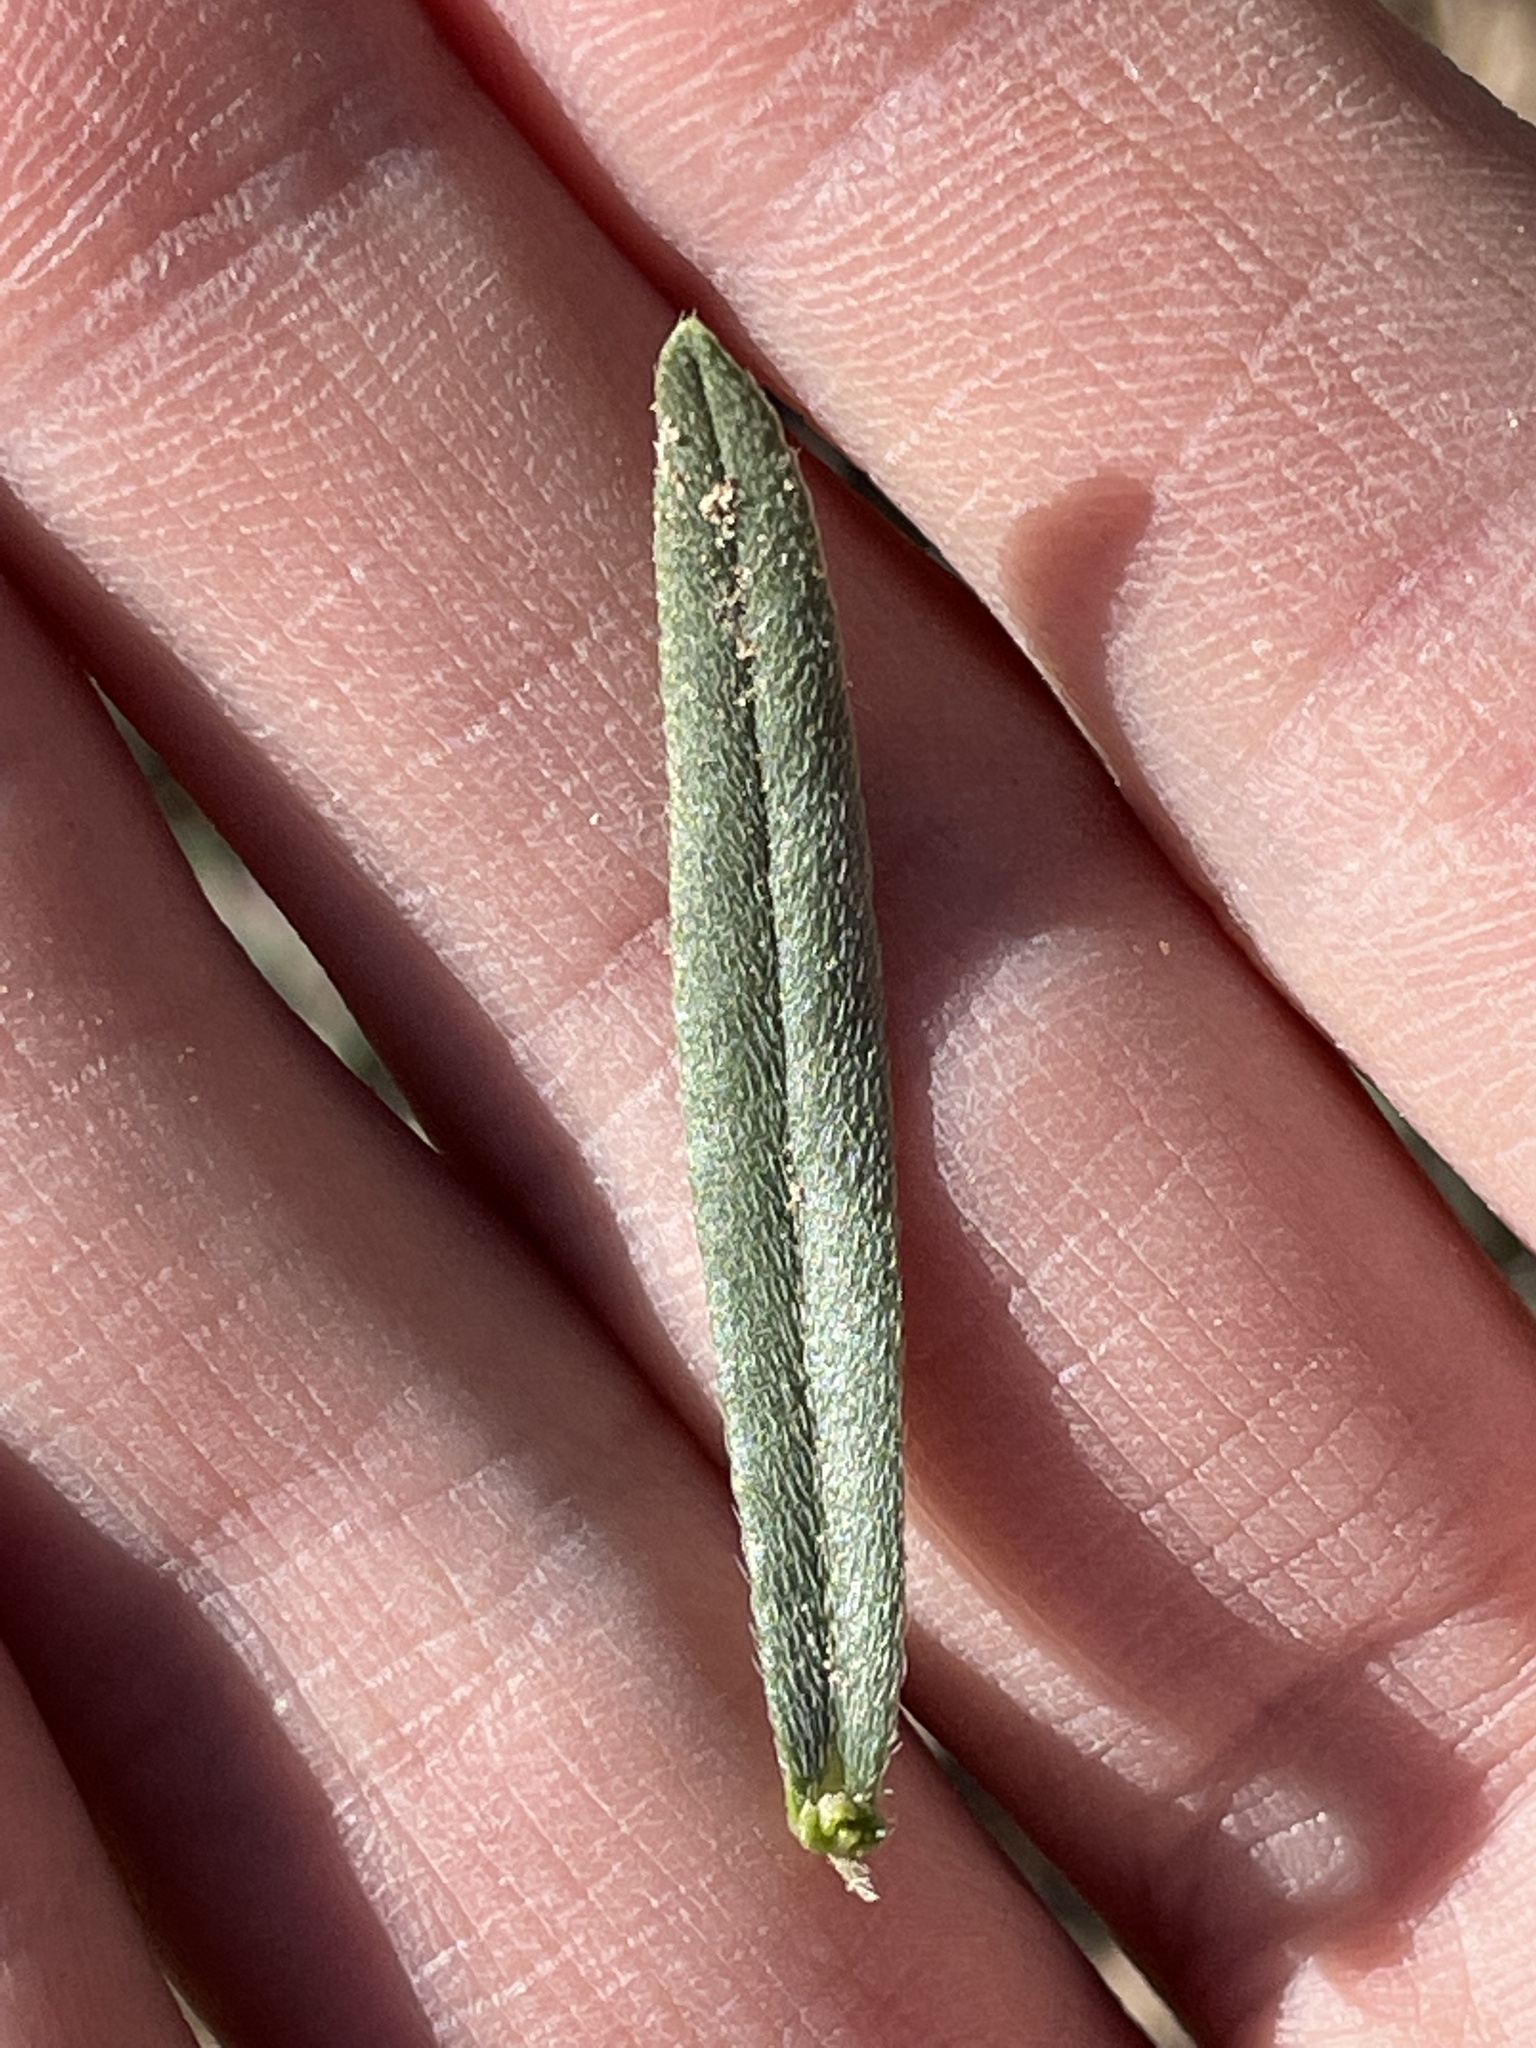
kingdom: Plantae
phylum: Tracheophyta
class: Magnoliopsida
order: Boraginales
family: Boraginaceae
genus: Lithospermum
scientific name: Lithospermum incisum
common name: Fringed gromwell
